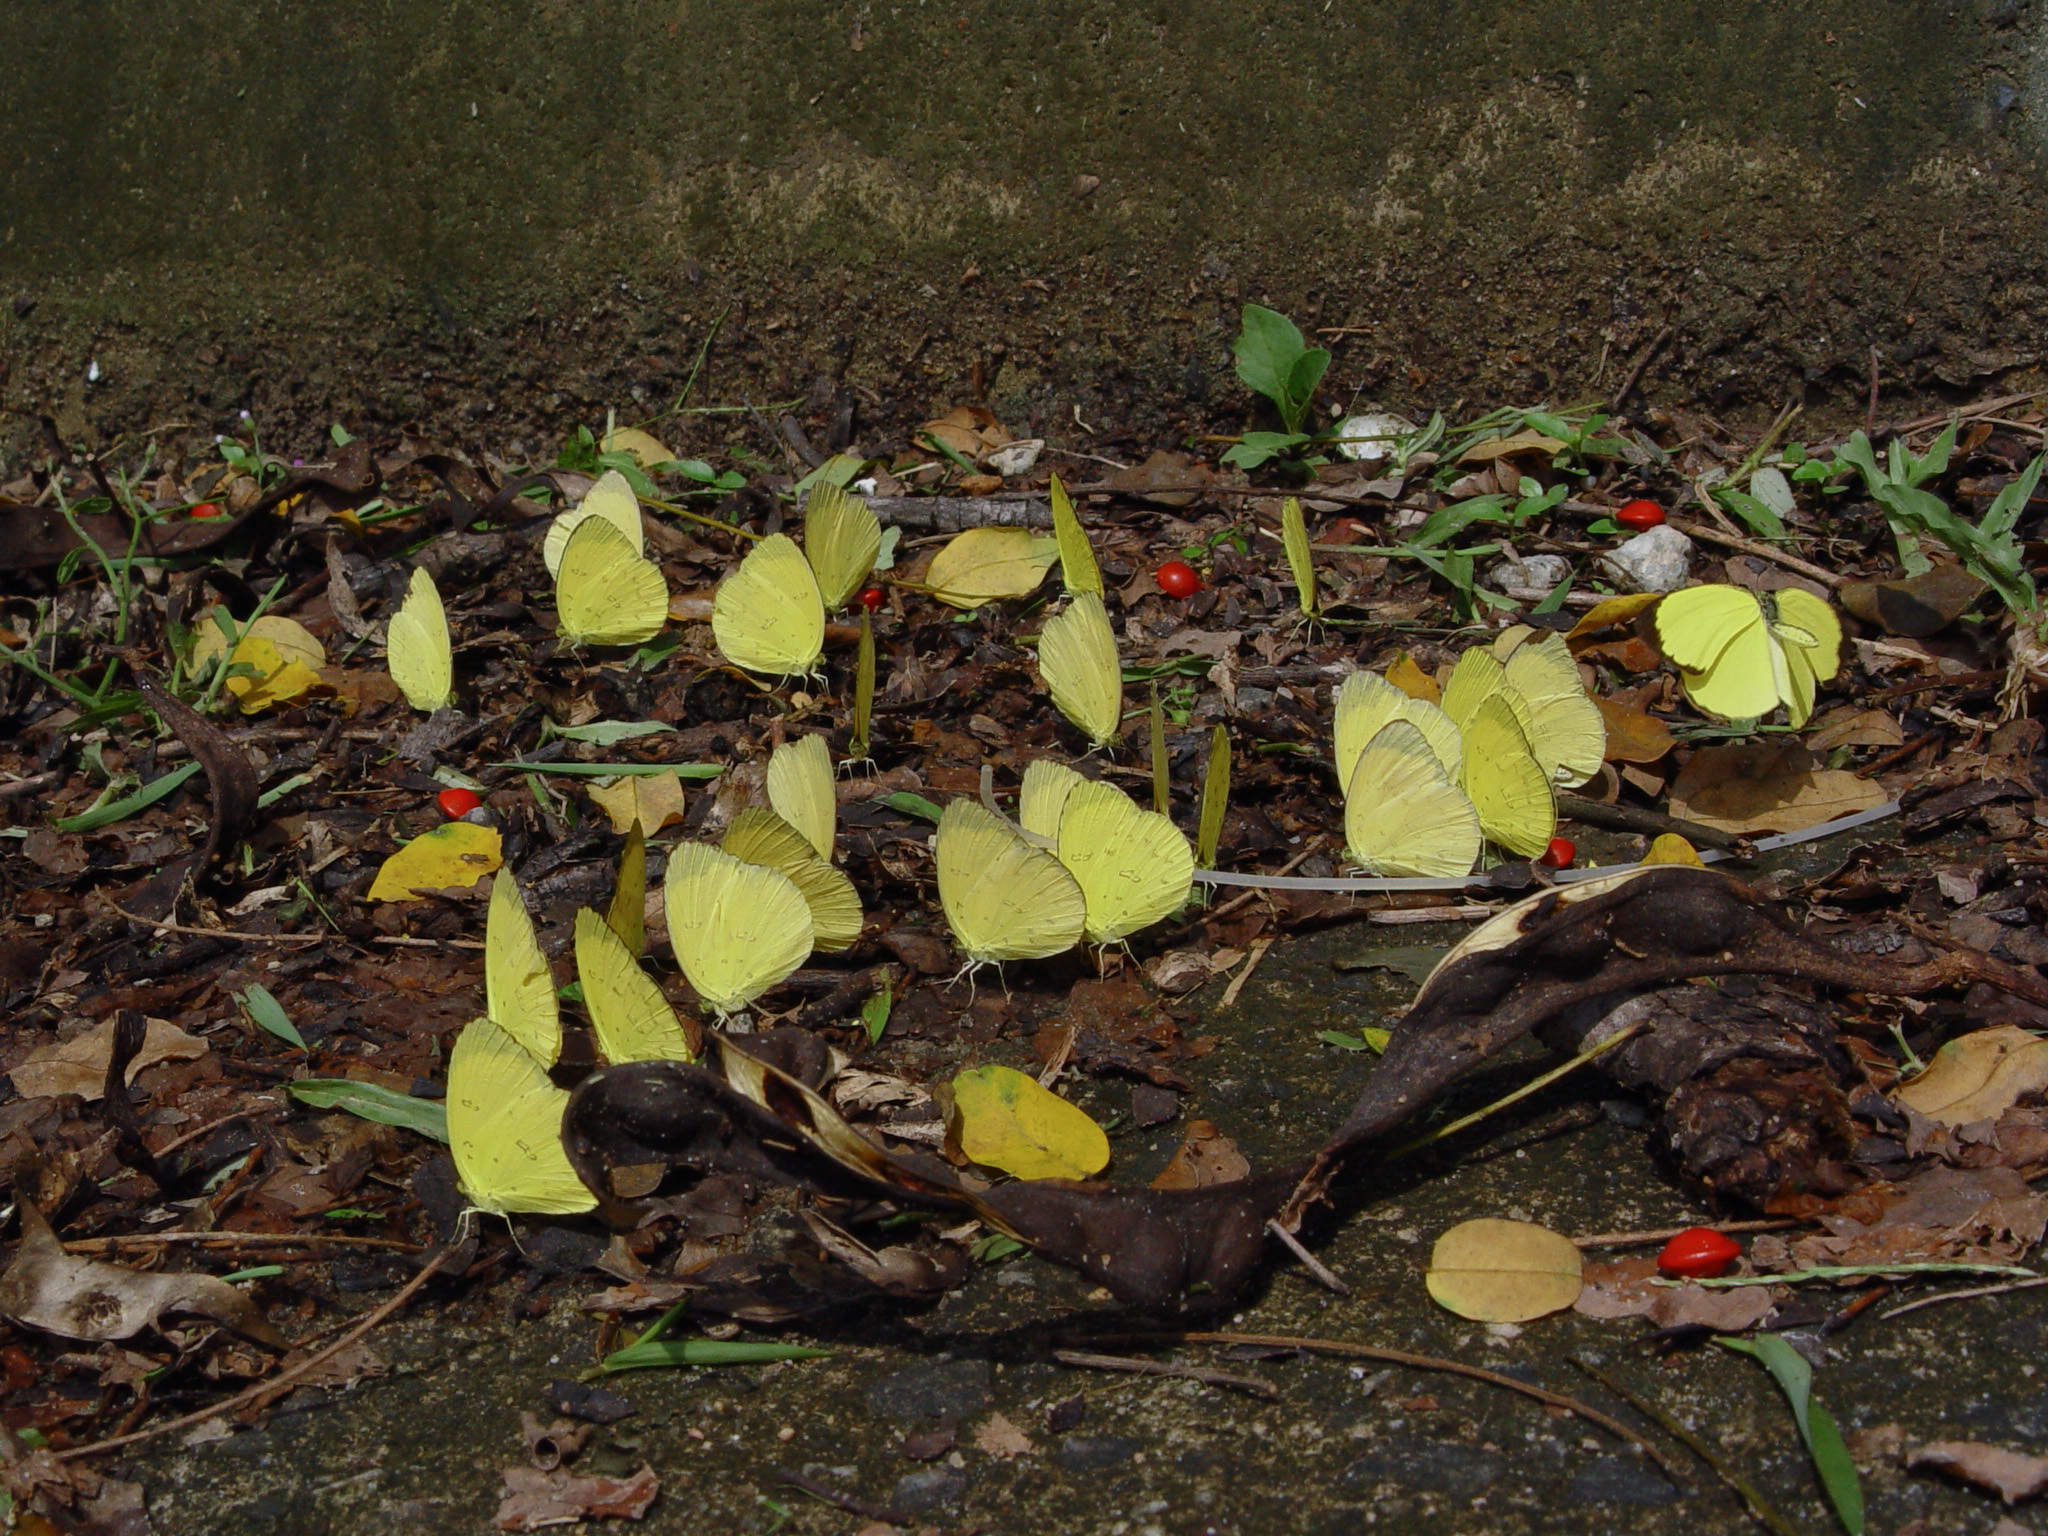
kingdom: Animalia
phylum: Arthropoda
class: Insecta
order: Lepidoptera
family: Pieridae
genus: Eurema
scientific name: Eurema blanda
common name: Three-spot grass yellow
